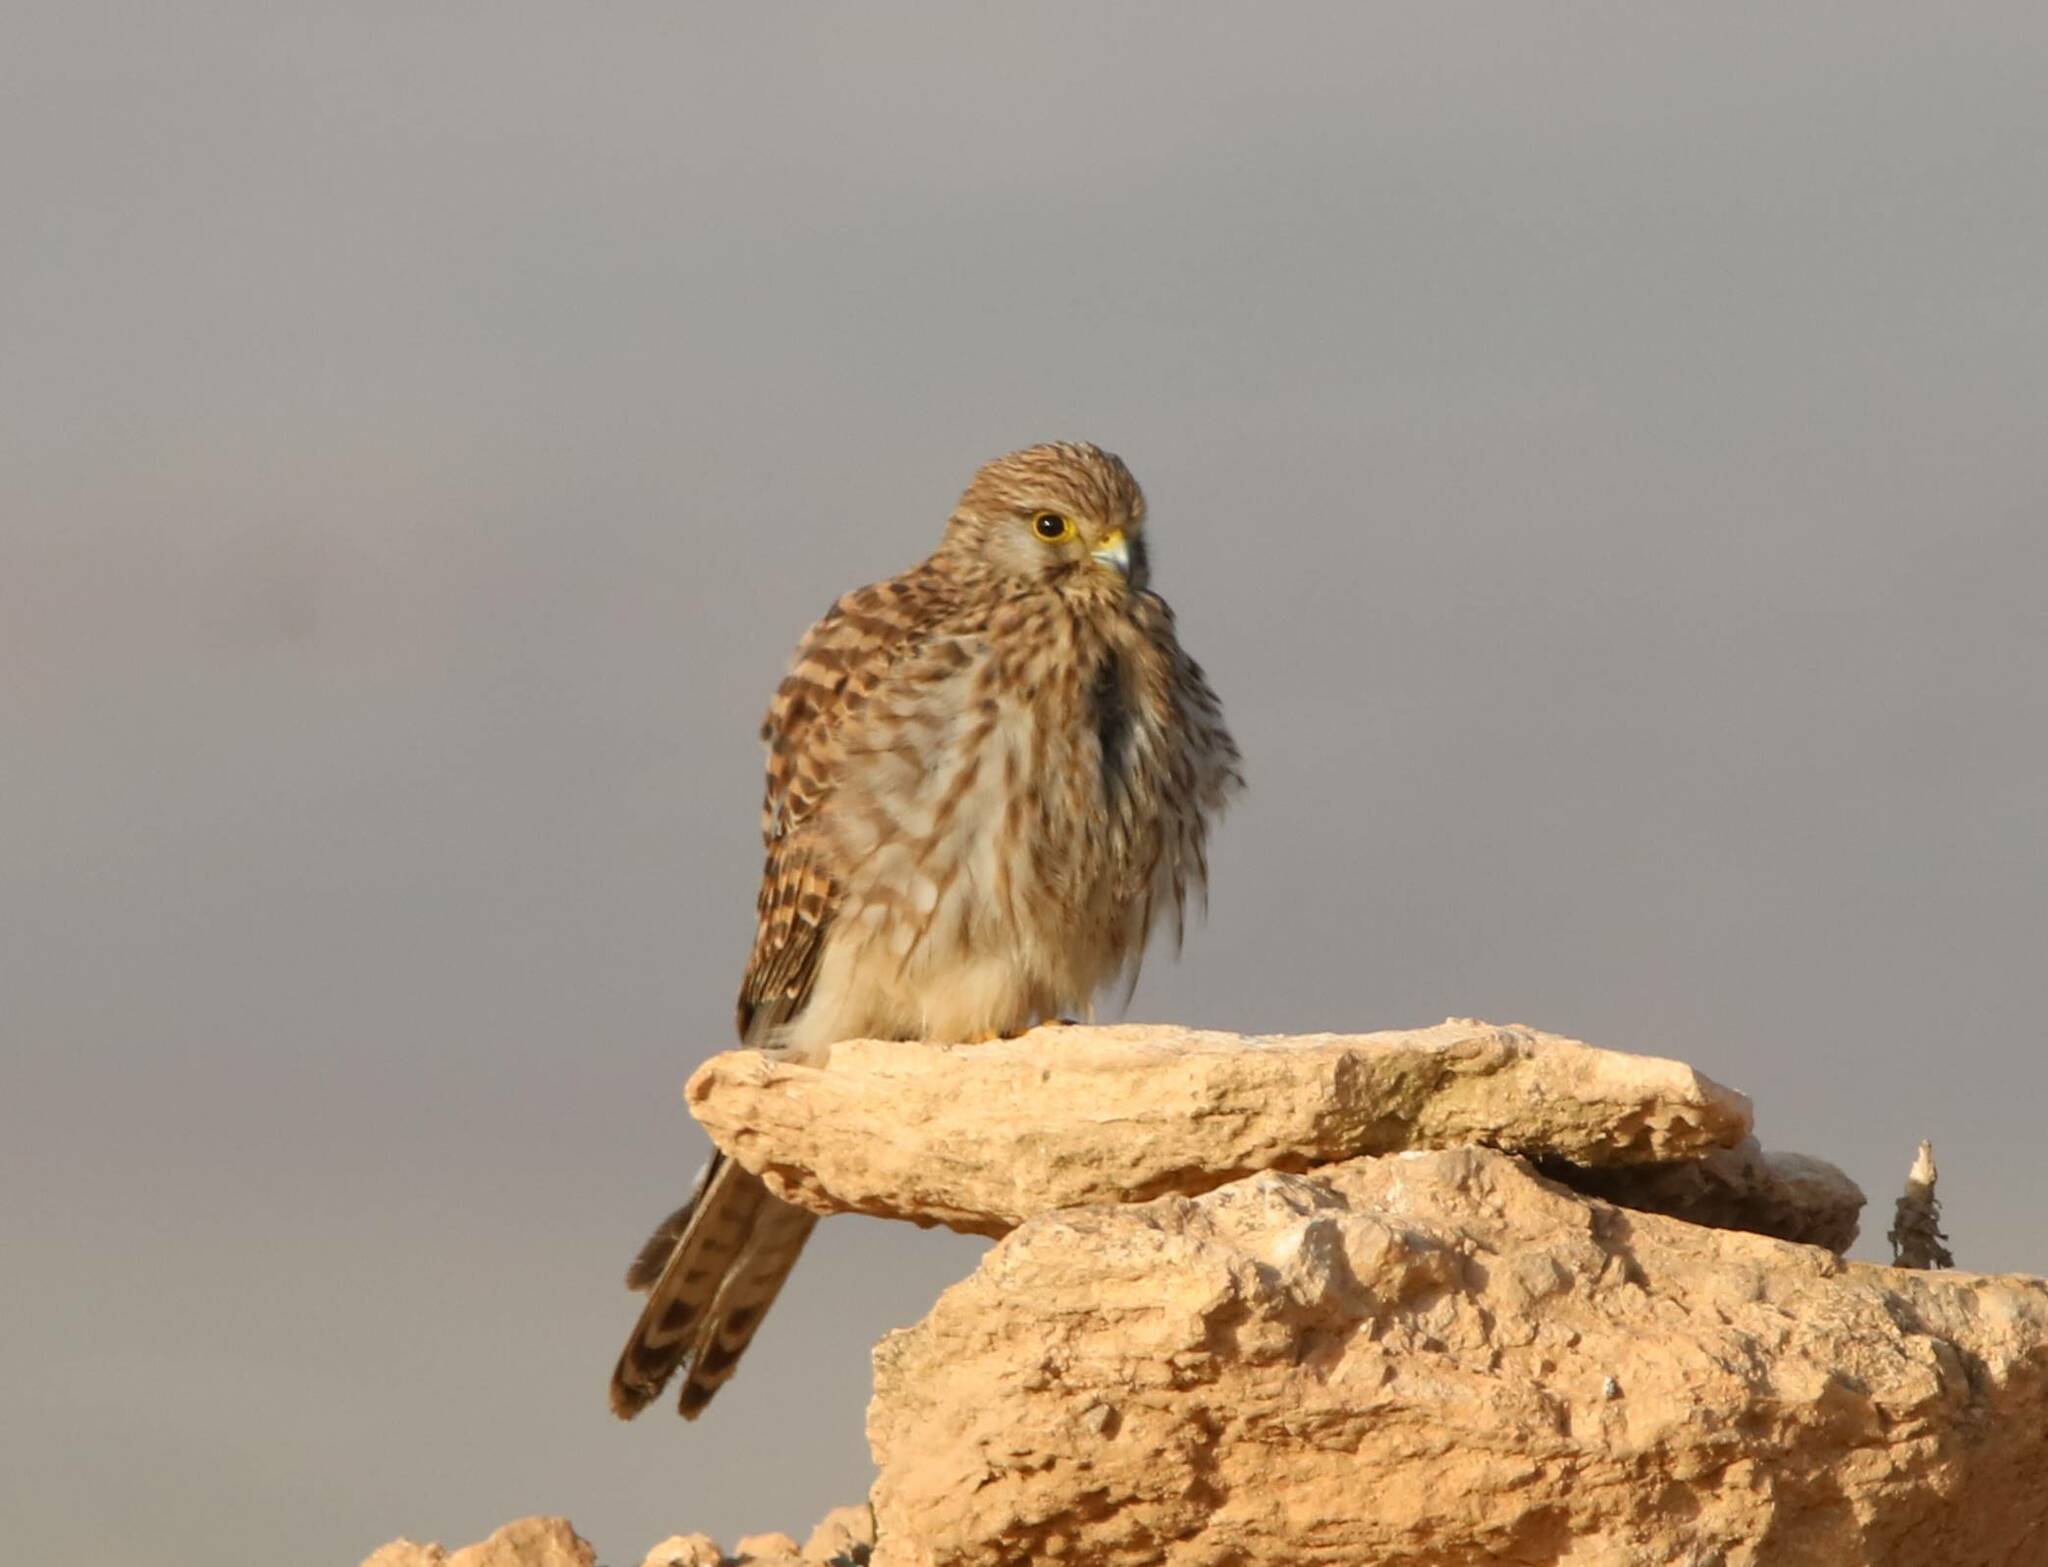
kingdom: Animalia
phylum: Chordata
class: Aves
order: Falconiformes
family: Falconidae
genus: Falco
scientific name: Falco tinnunculus
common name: Common kestrel
